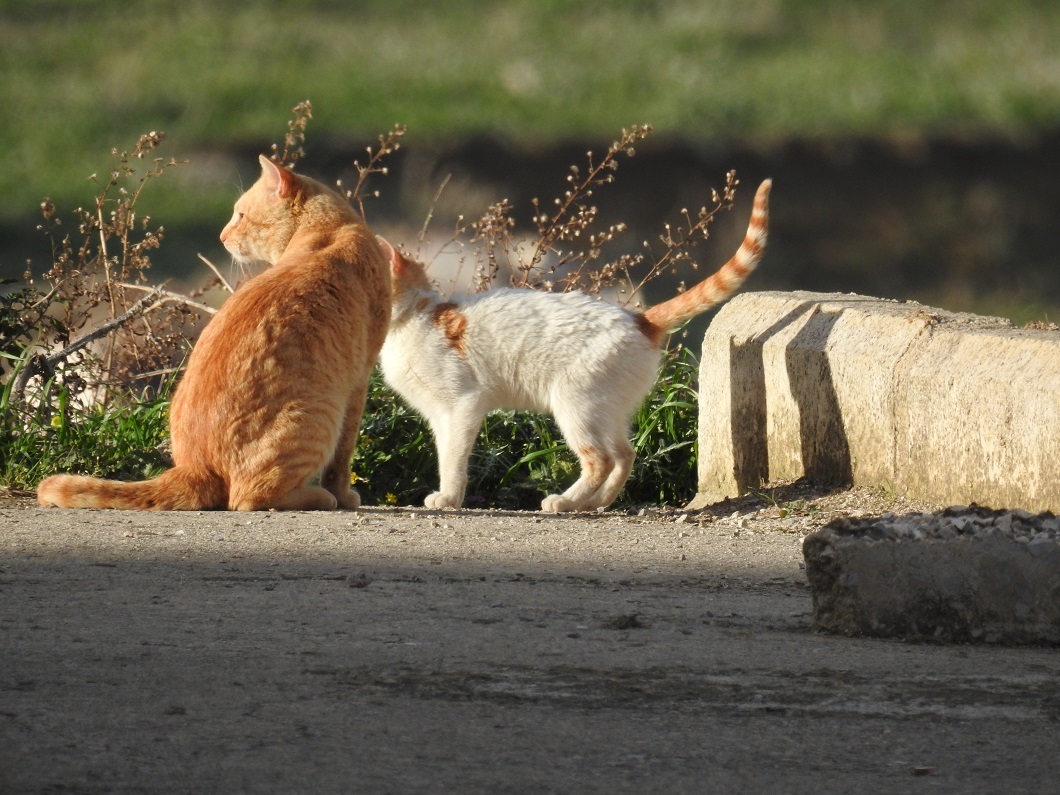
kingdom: Animalia
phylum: Chordata
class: Mammalia
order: Carnivora
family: Felidae
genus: Felis
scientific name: Felis catus
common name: Domestic cat
